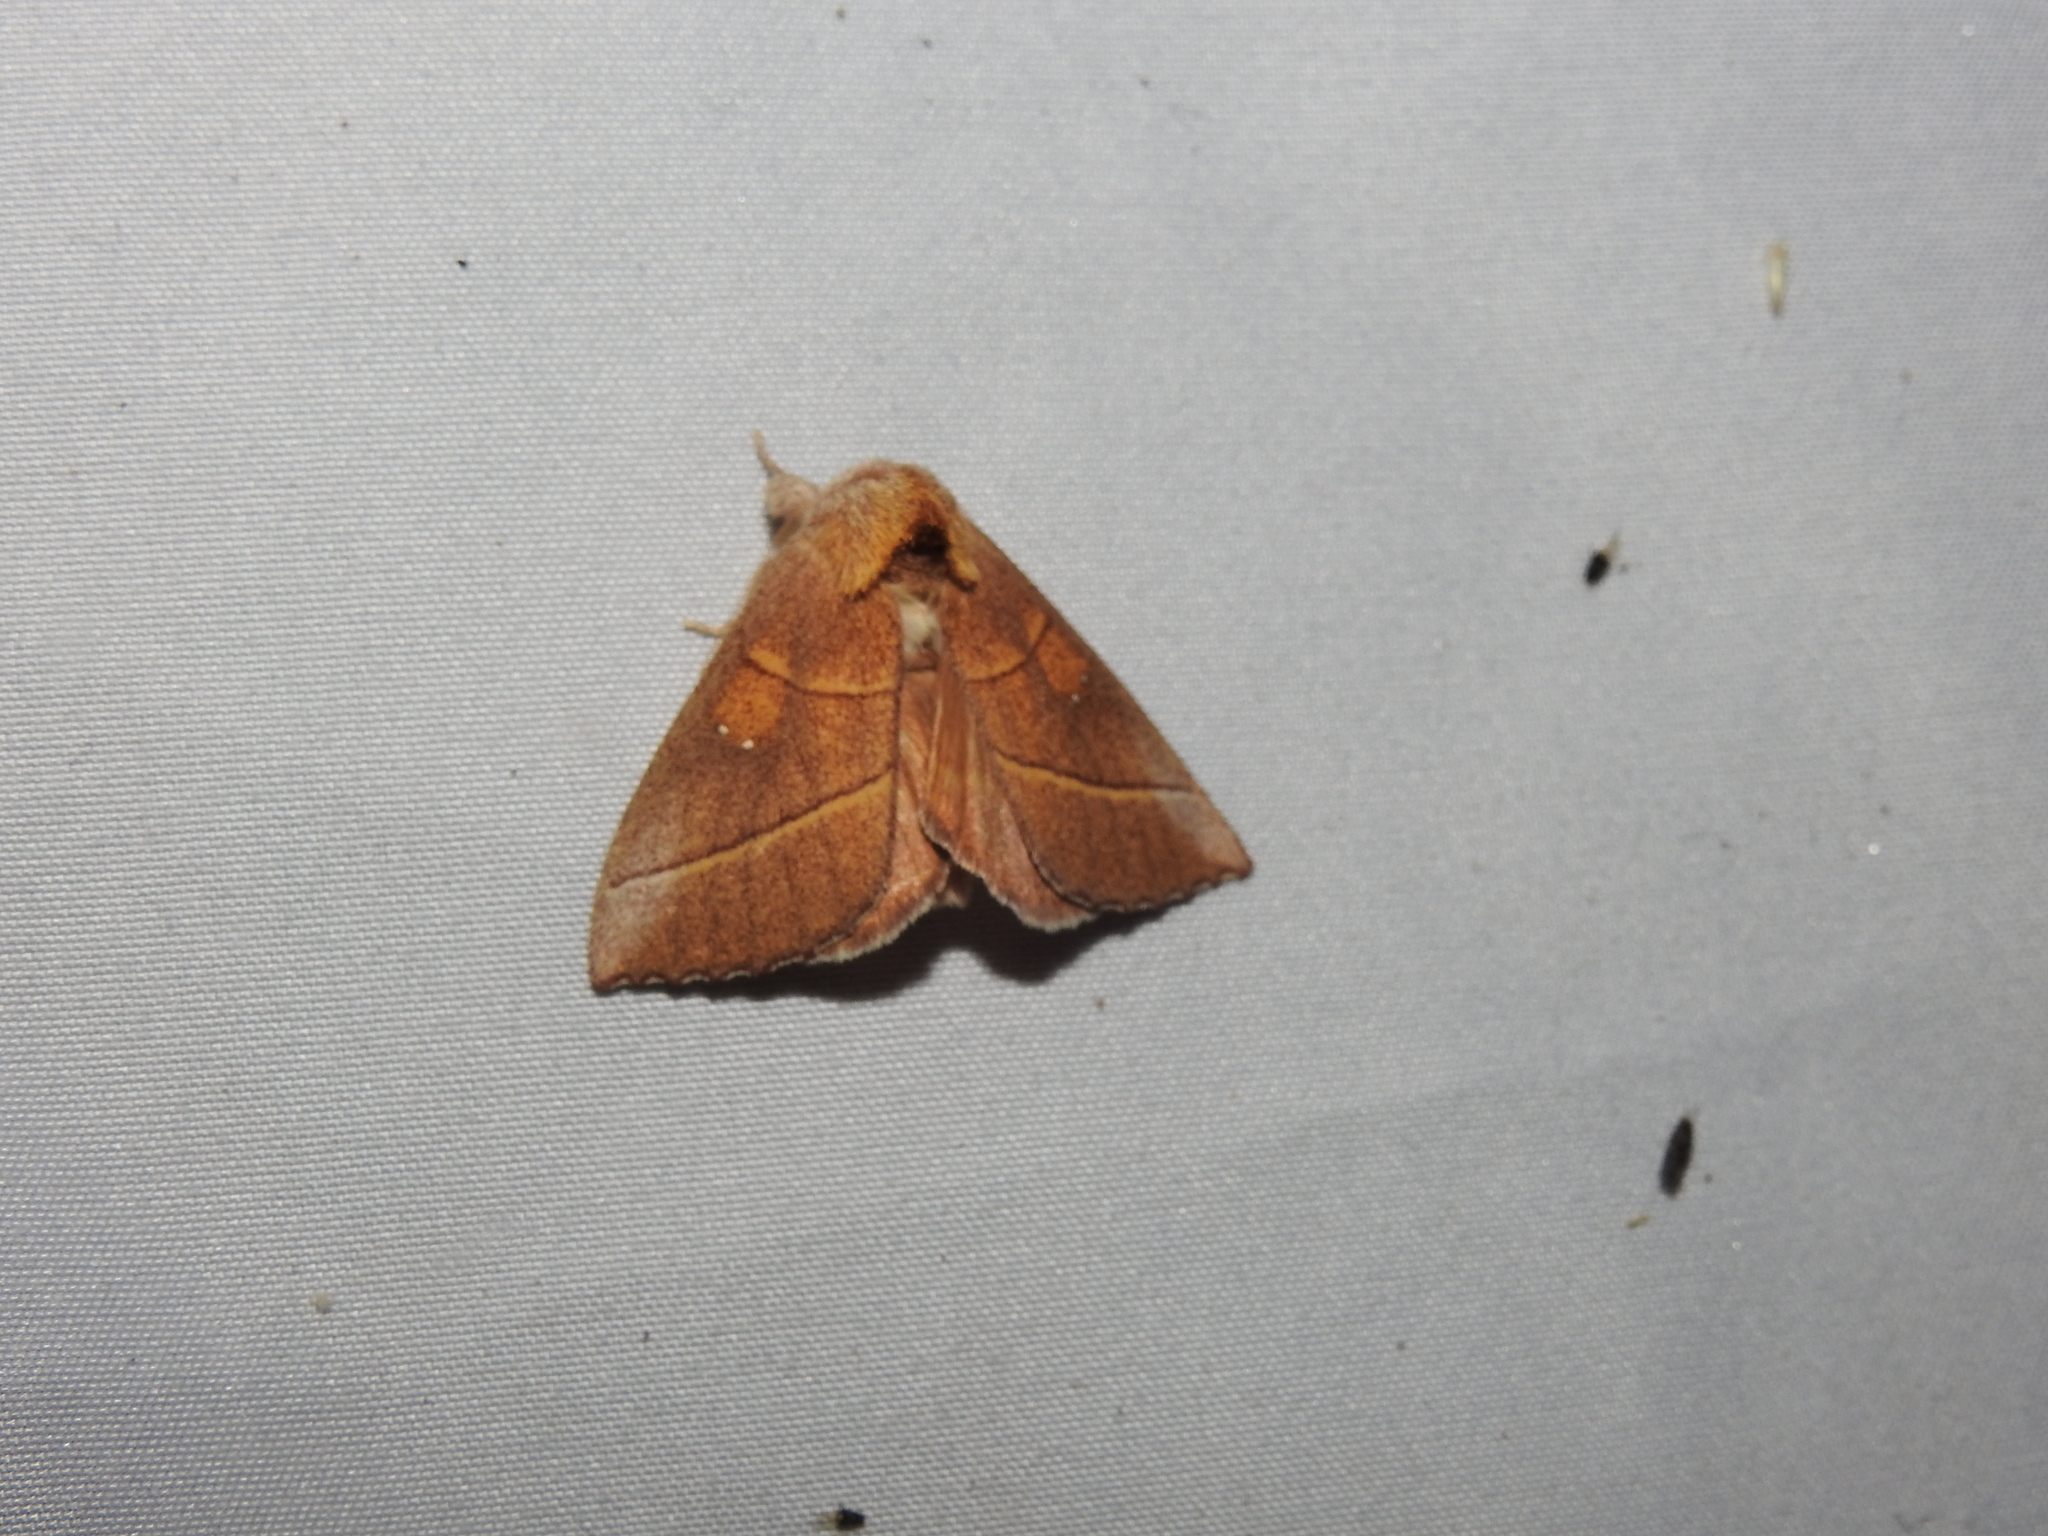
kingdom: Animalia
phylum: Arthropoda
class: Insecta
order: Lepidoptera
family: Notodontidae
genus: Nadata
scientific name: Nadata gibbosa
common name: White-dotted prominent
